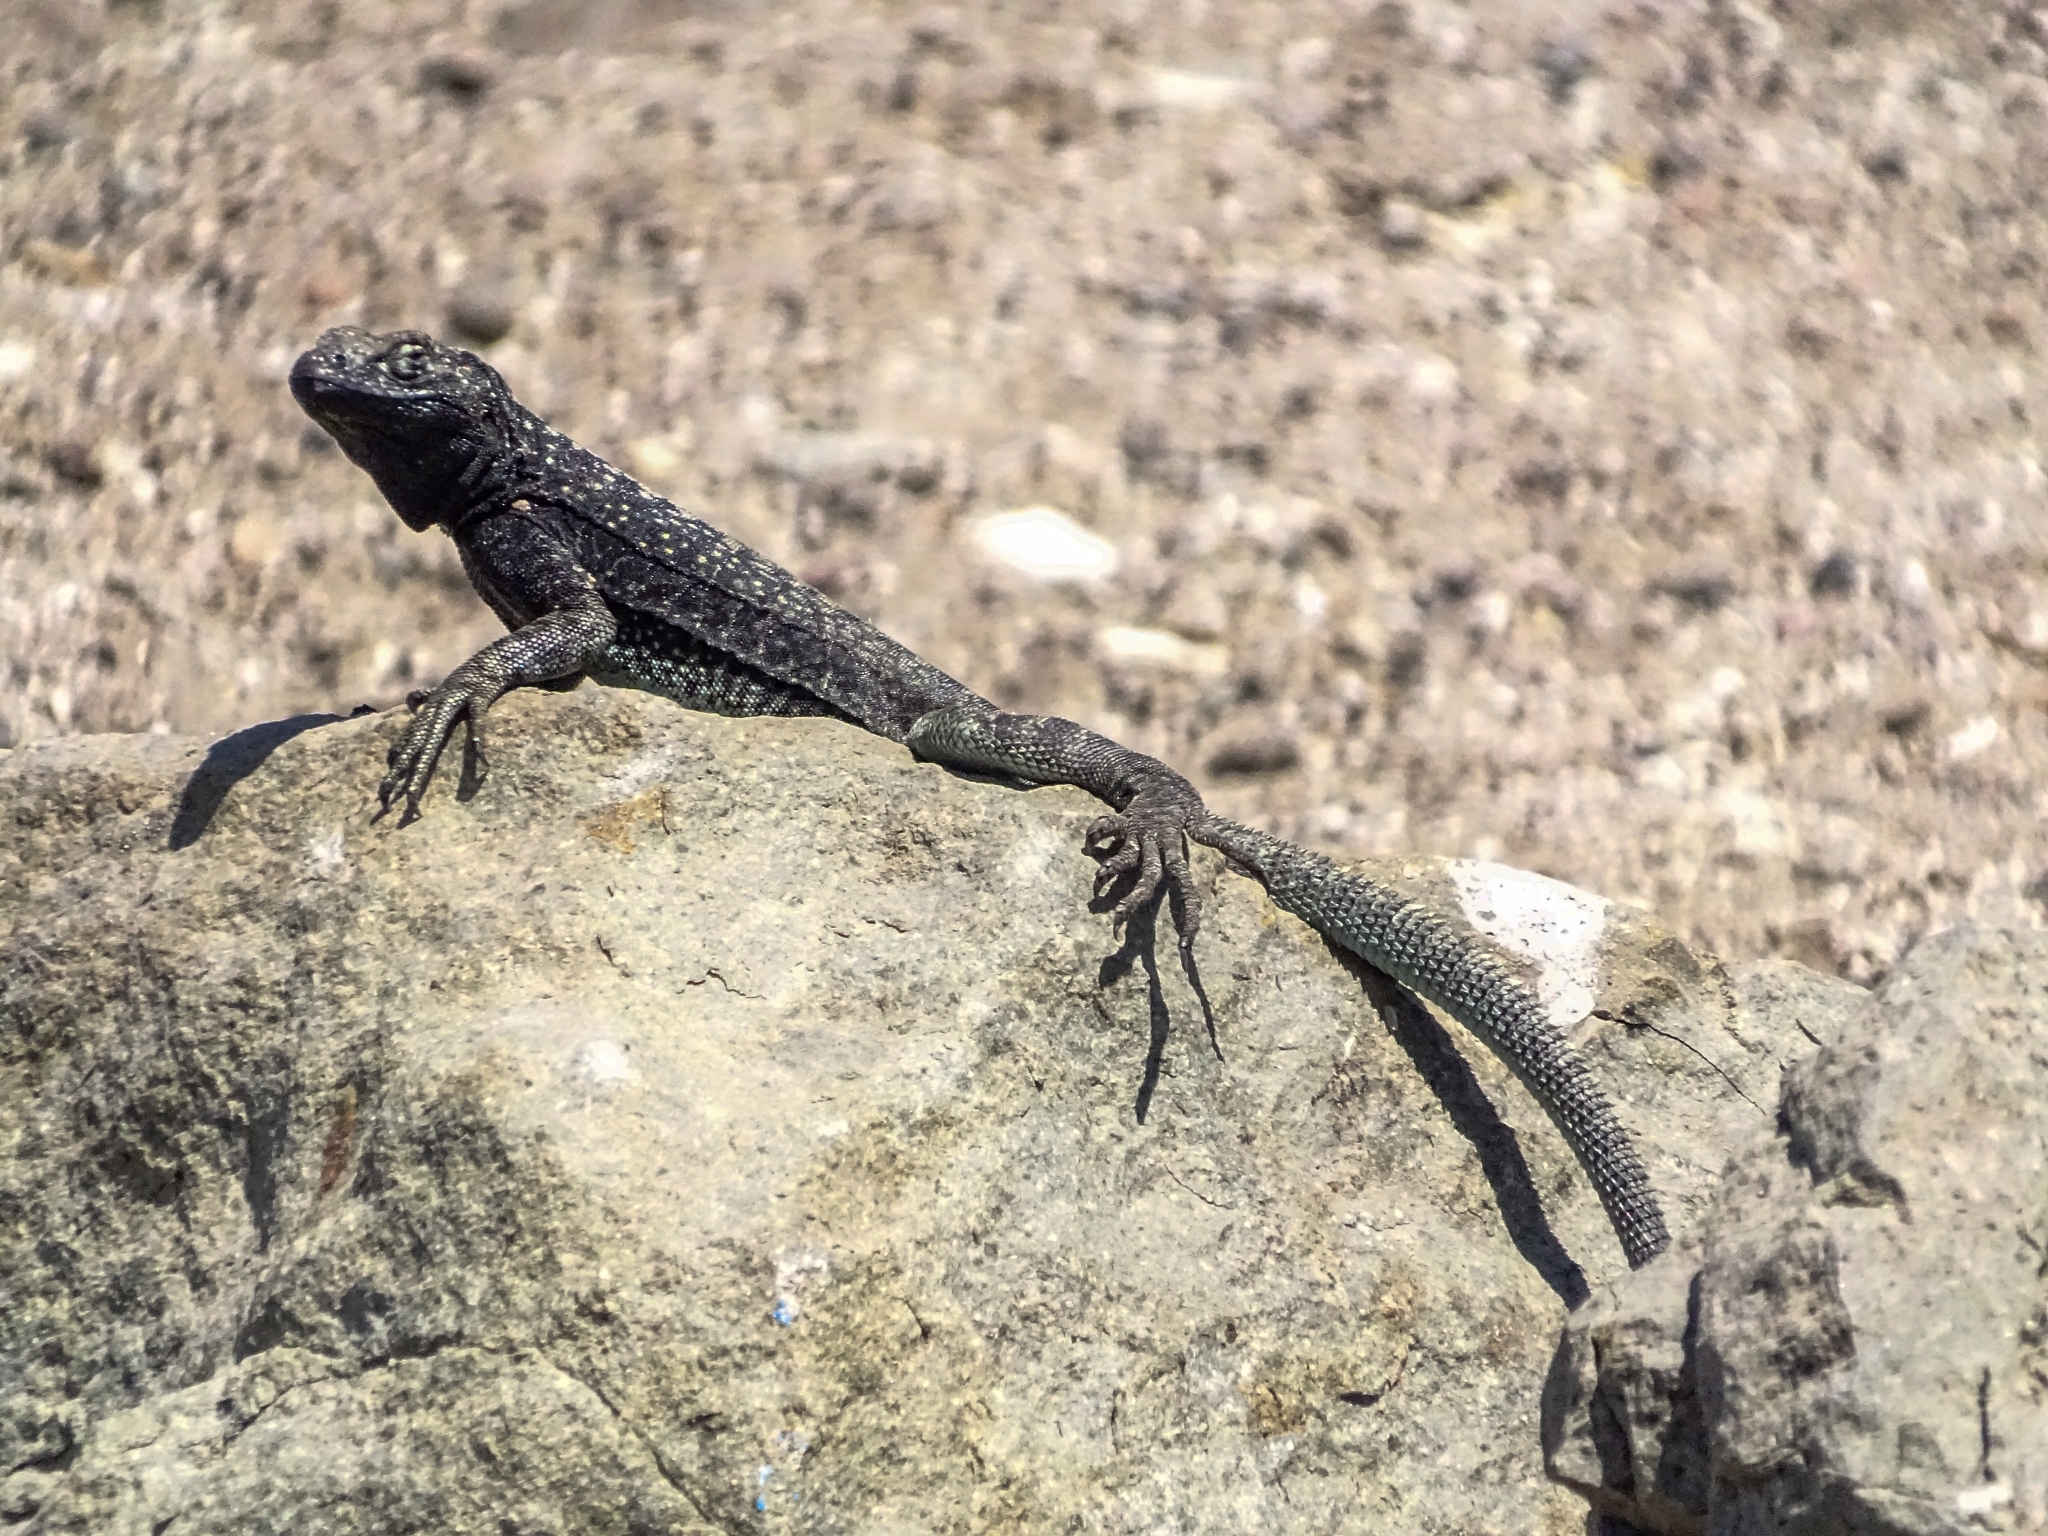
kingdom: Animalia
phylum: Chordata
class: Squamata
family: Tropiduridae
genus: Microlophus
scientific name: Microlophus atacamensis
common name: Atacamen pacific iguana
